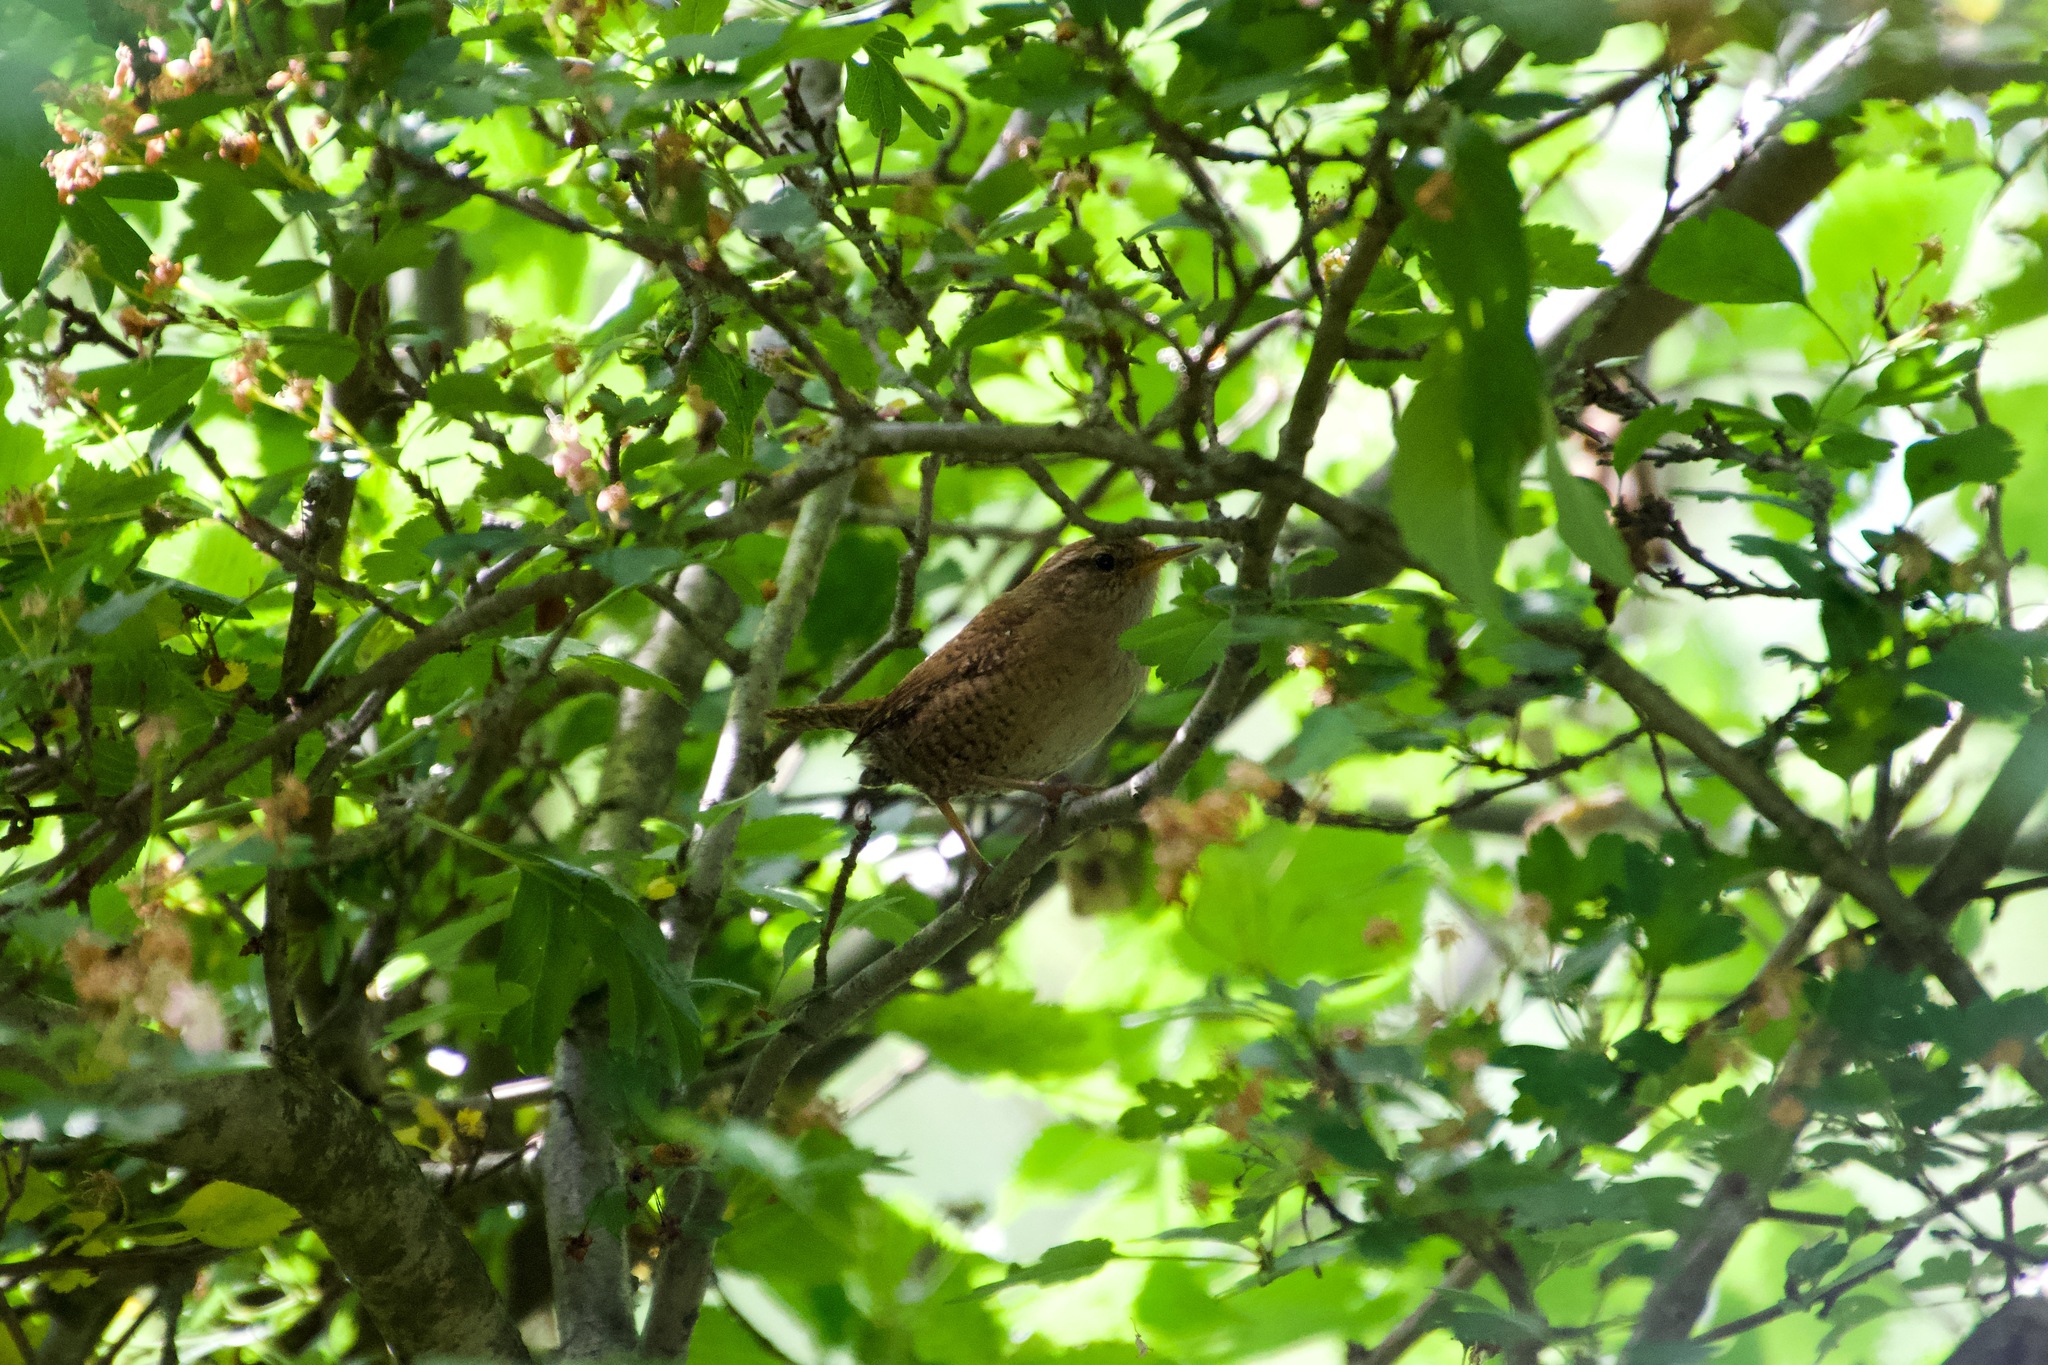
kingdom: Animalia
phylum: Chordata
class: Aves
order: Passeriformes
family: Troglodytidae
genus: Troglodytes
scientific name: Troglodytes troglodytes
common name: Eurasian wren
